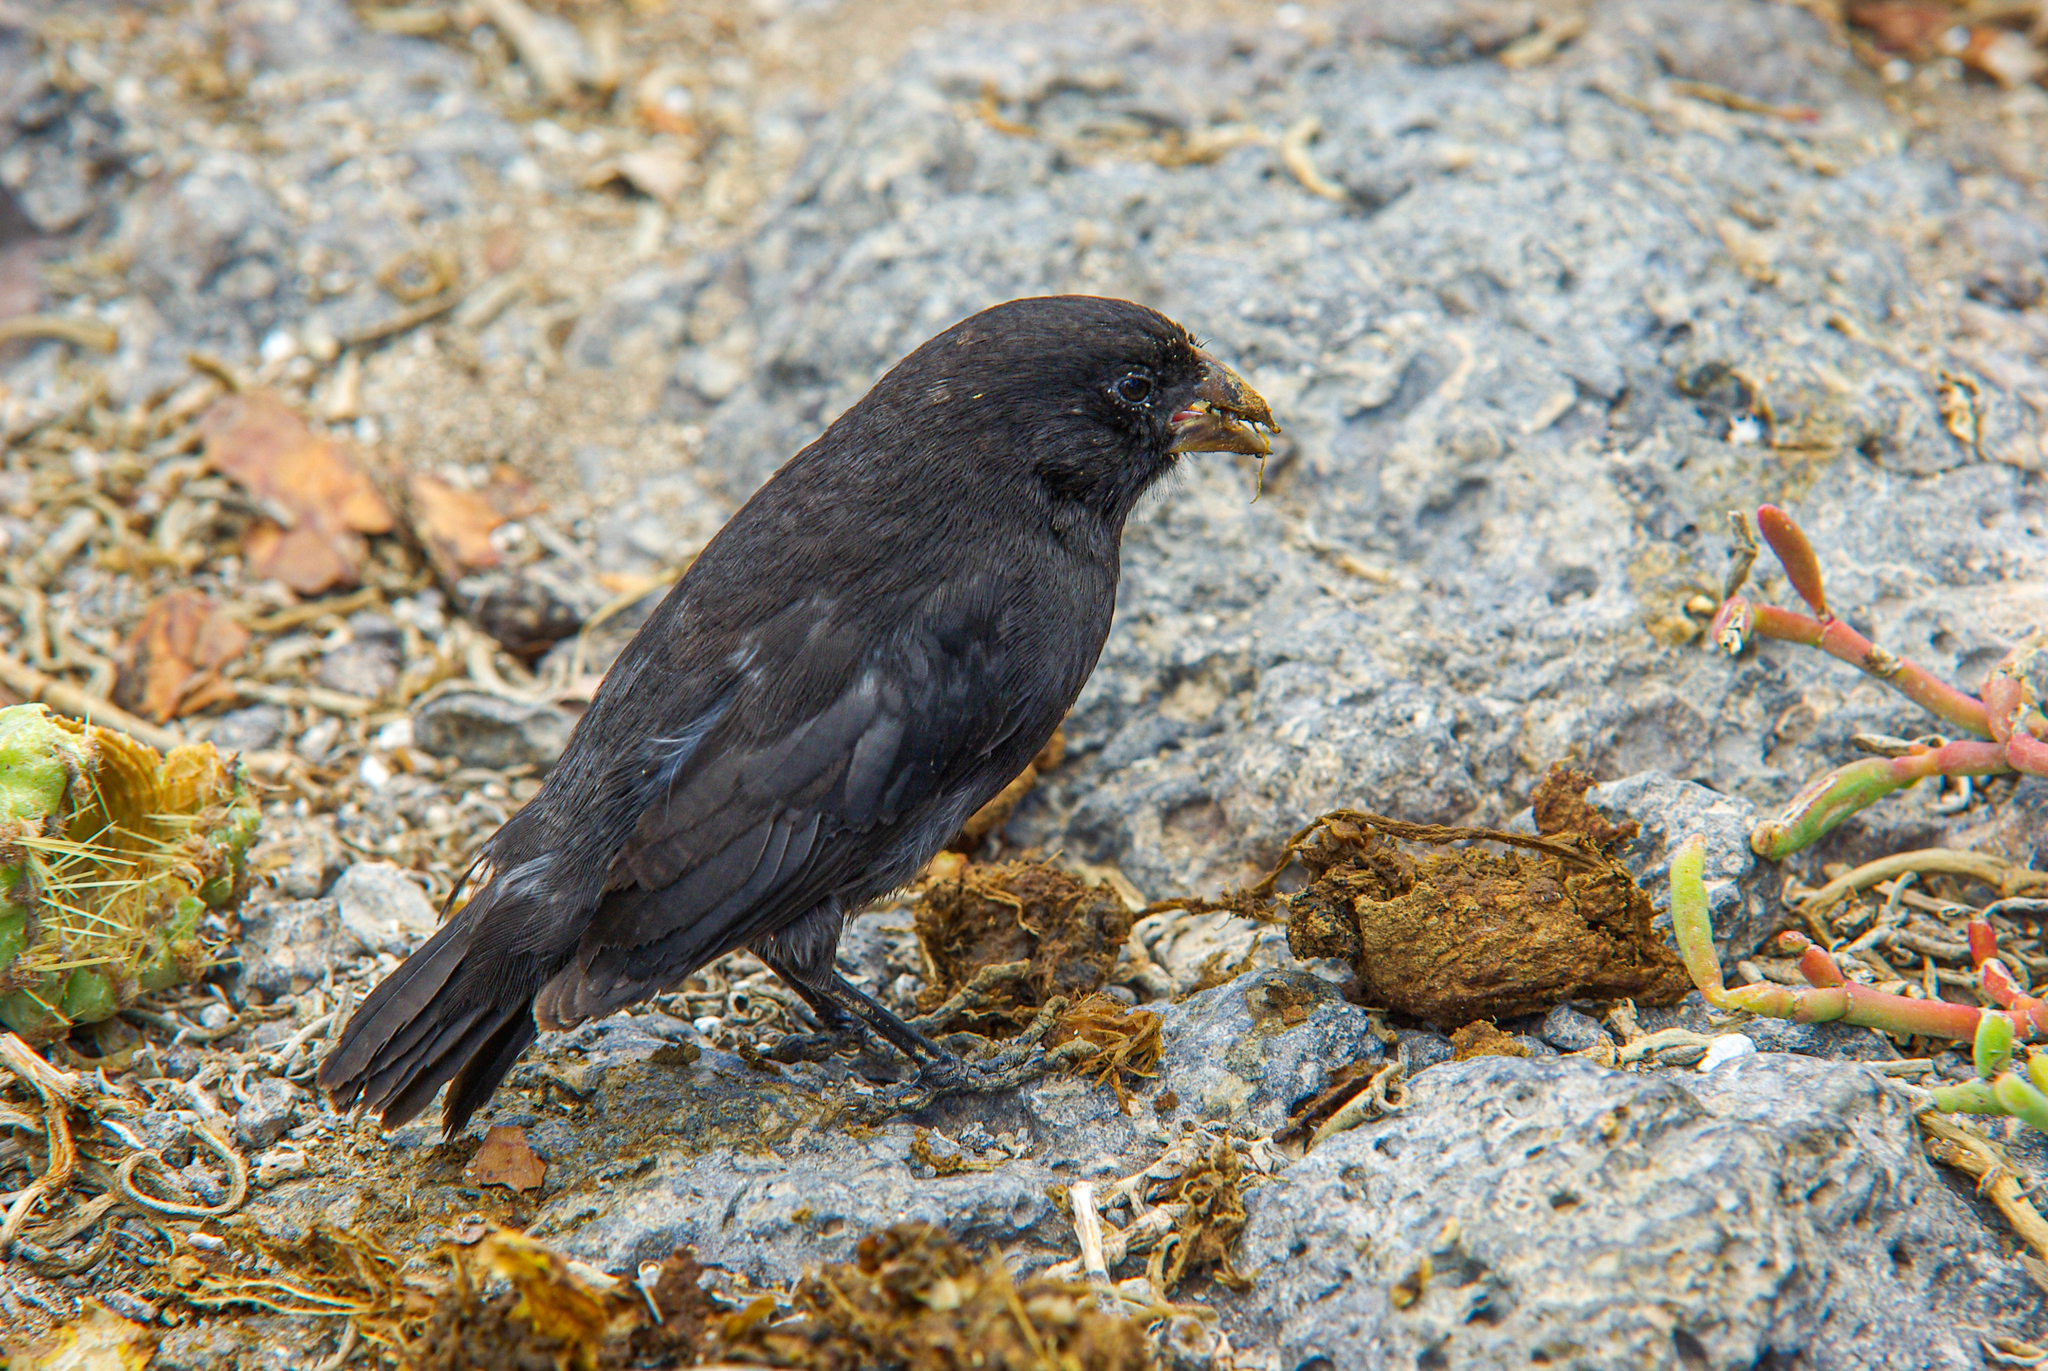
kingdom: Animalia
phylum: Chordata
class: Aves
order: Passeriformes
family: Thraupidae
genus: Geospiza
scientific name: Geospiza fuliginosa
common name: Small ground finch
